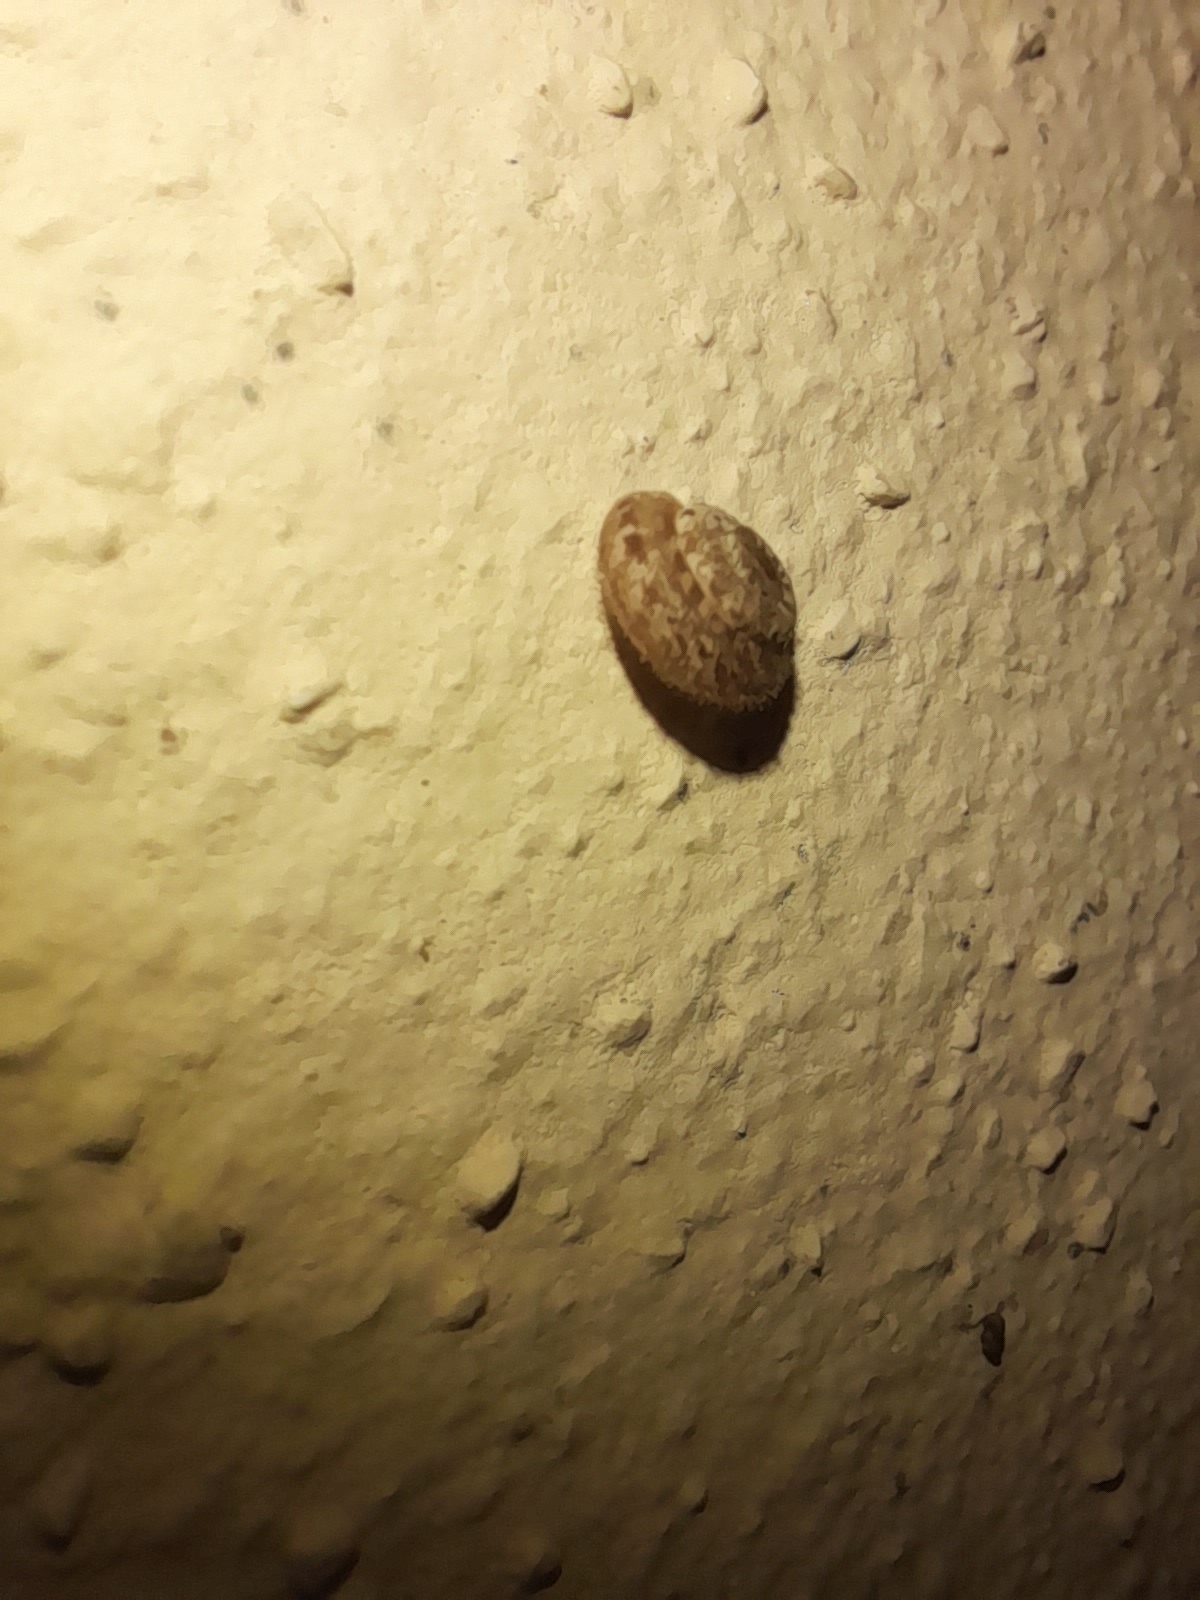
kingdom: Animalia
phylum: Mollusca
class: Gastropoda
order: Stylommatophora
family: Geomitridae
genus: Xerotricha
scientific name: Xerotricha conspurcata
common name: Snail
